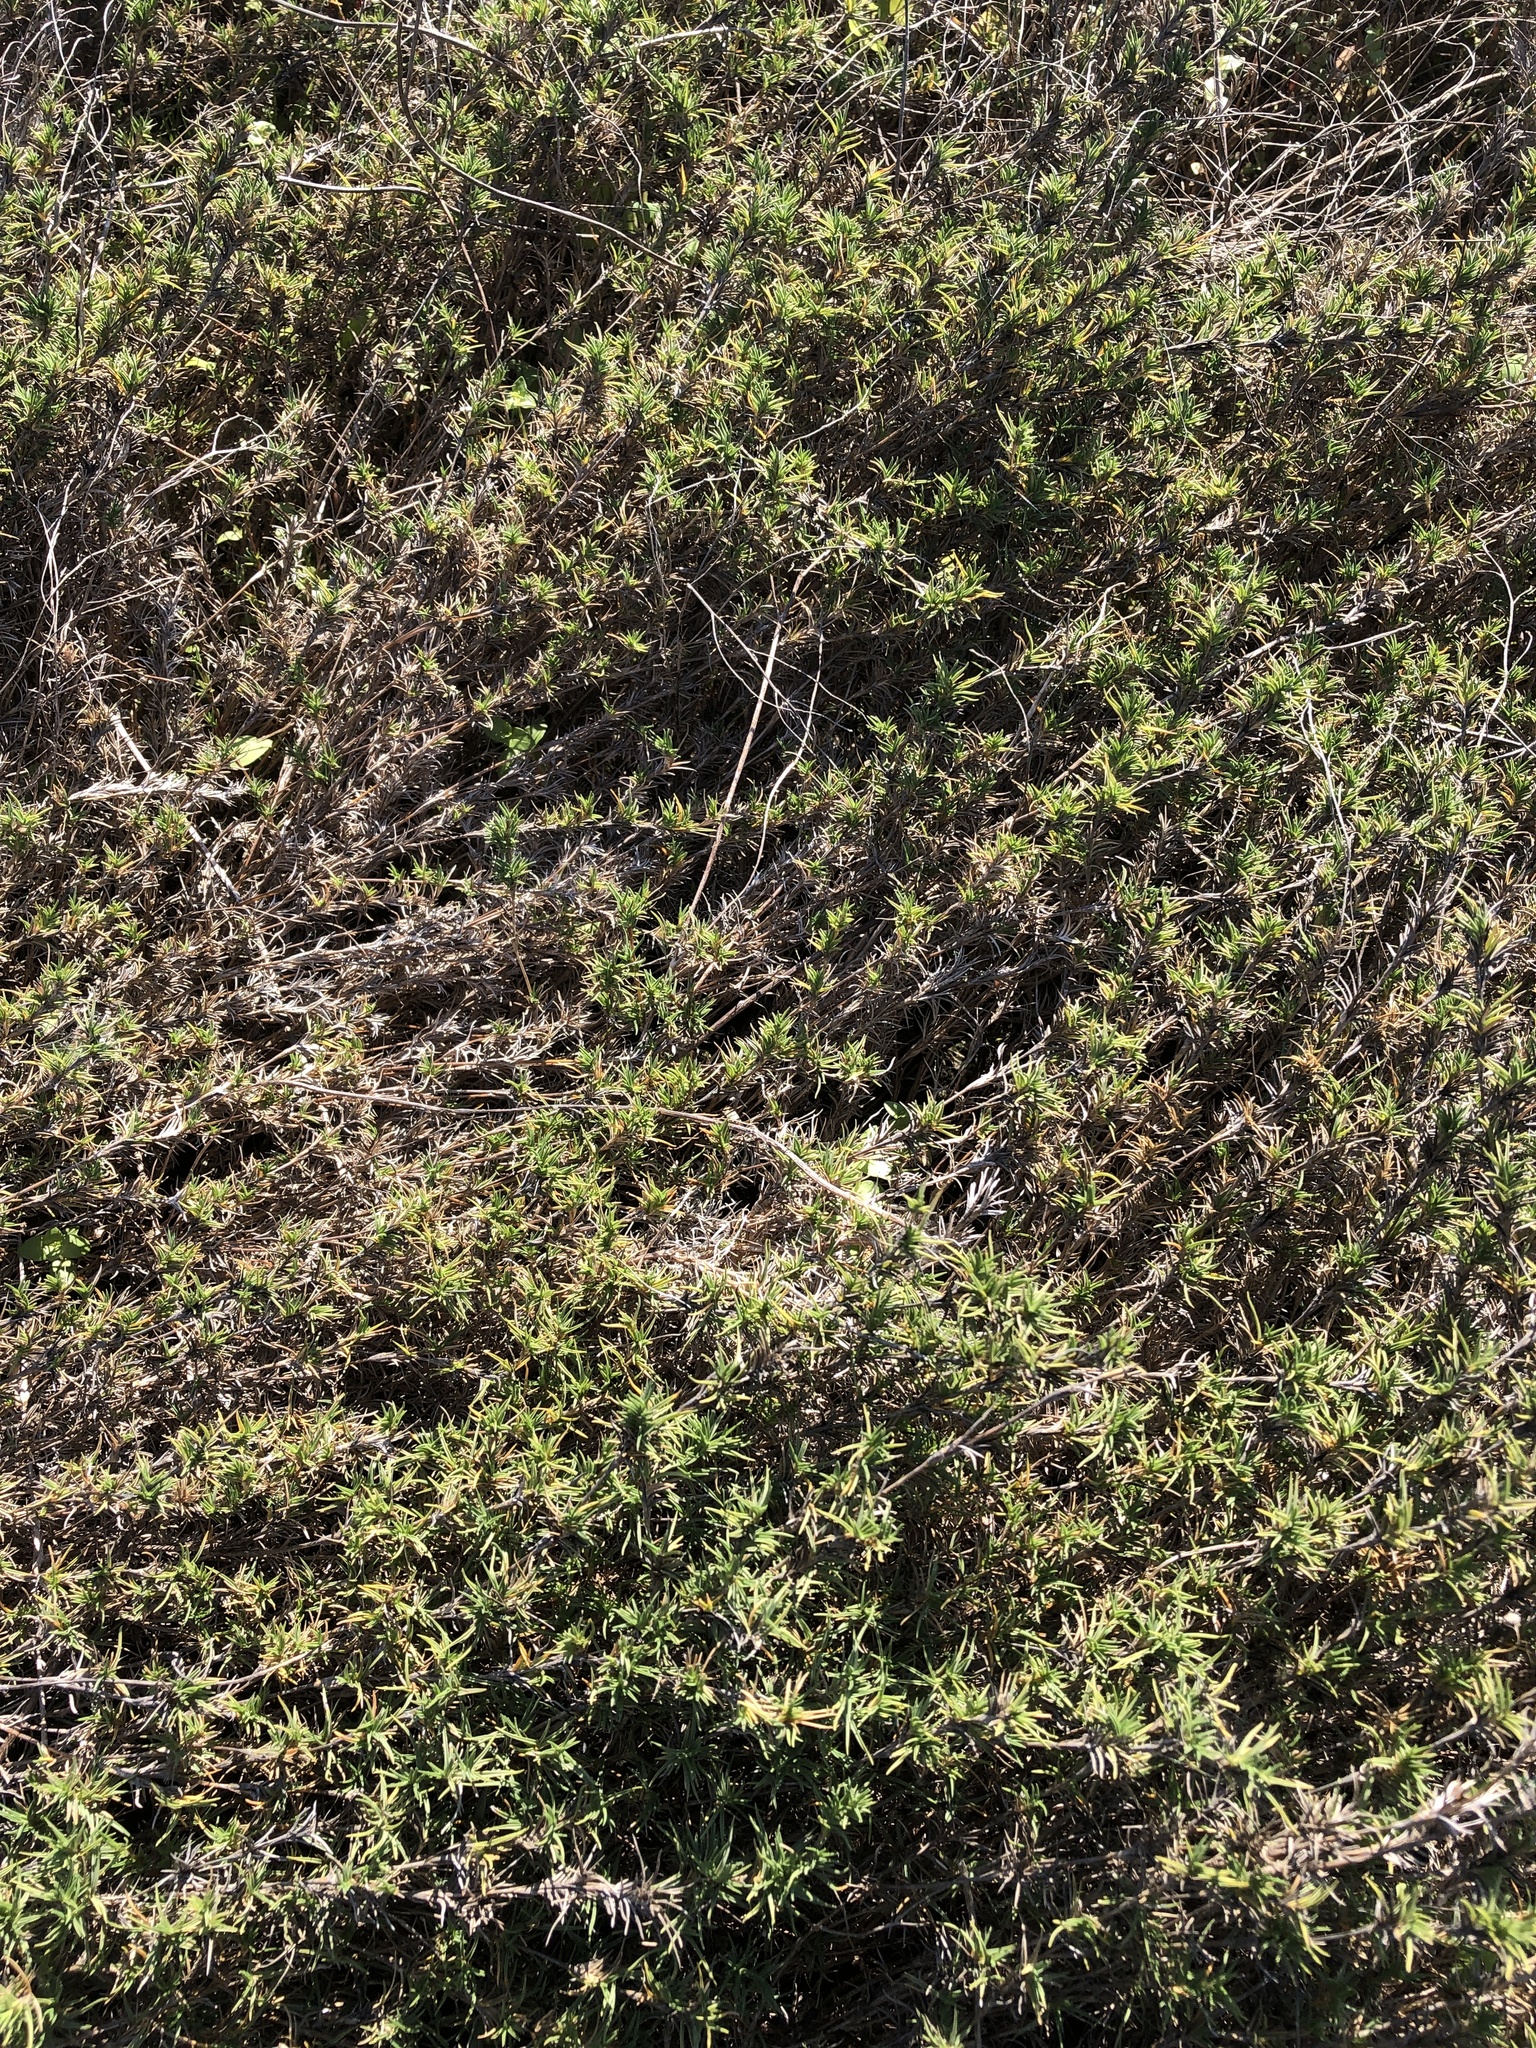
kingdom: Plantae
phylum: Tracheophyta
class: Liliopsida
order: Poales
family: Poaceae
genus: Distichlis
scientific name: Distichlis littoralis
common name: Shore grass
